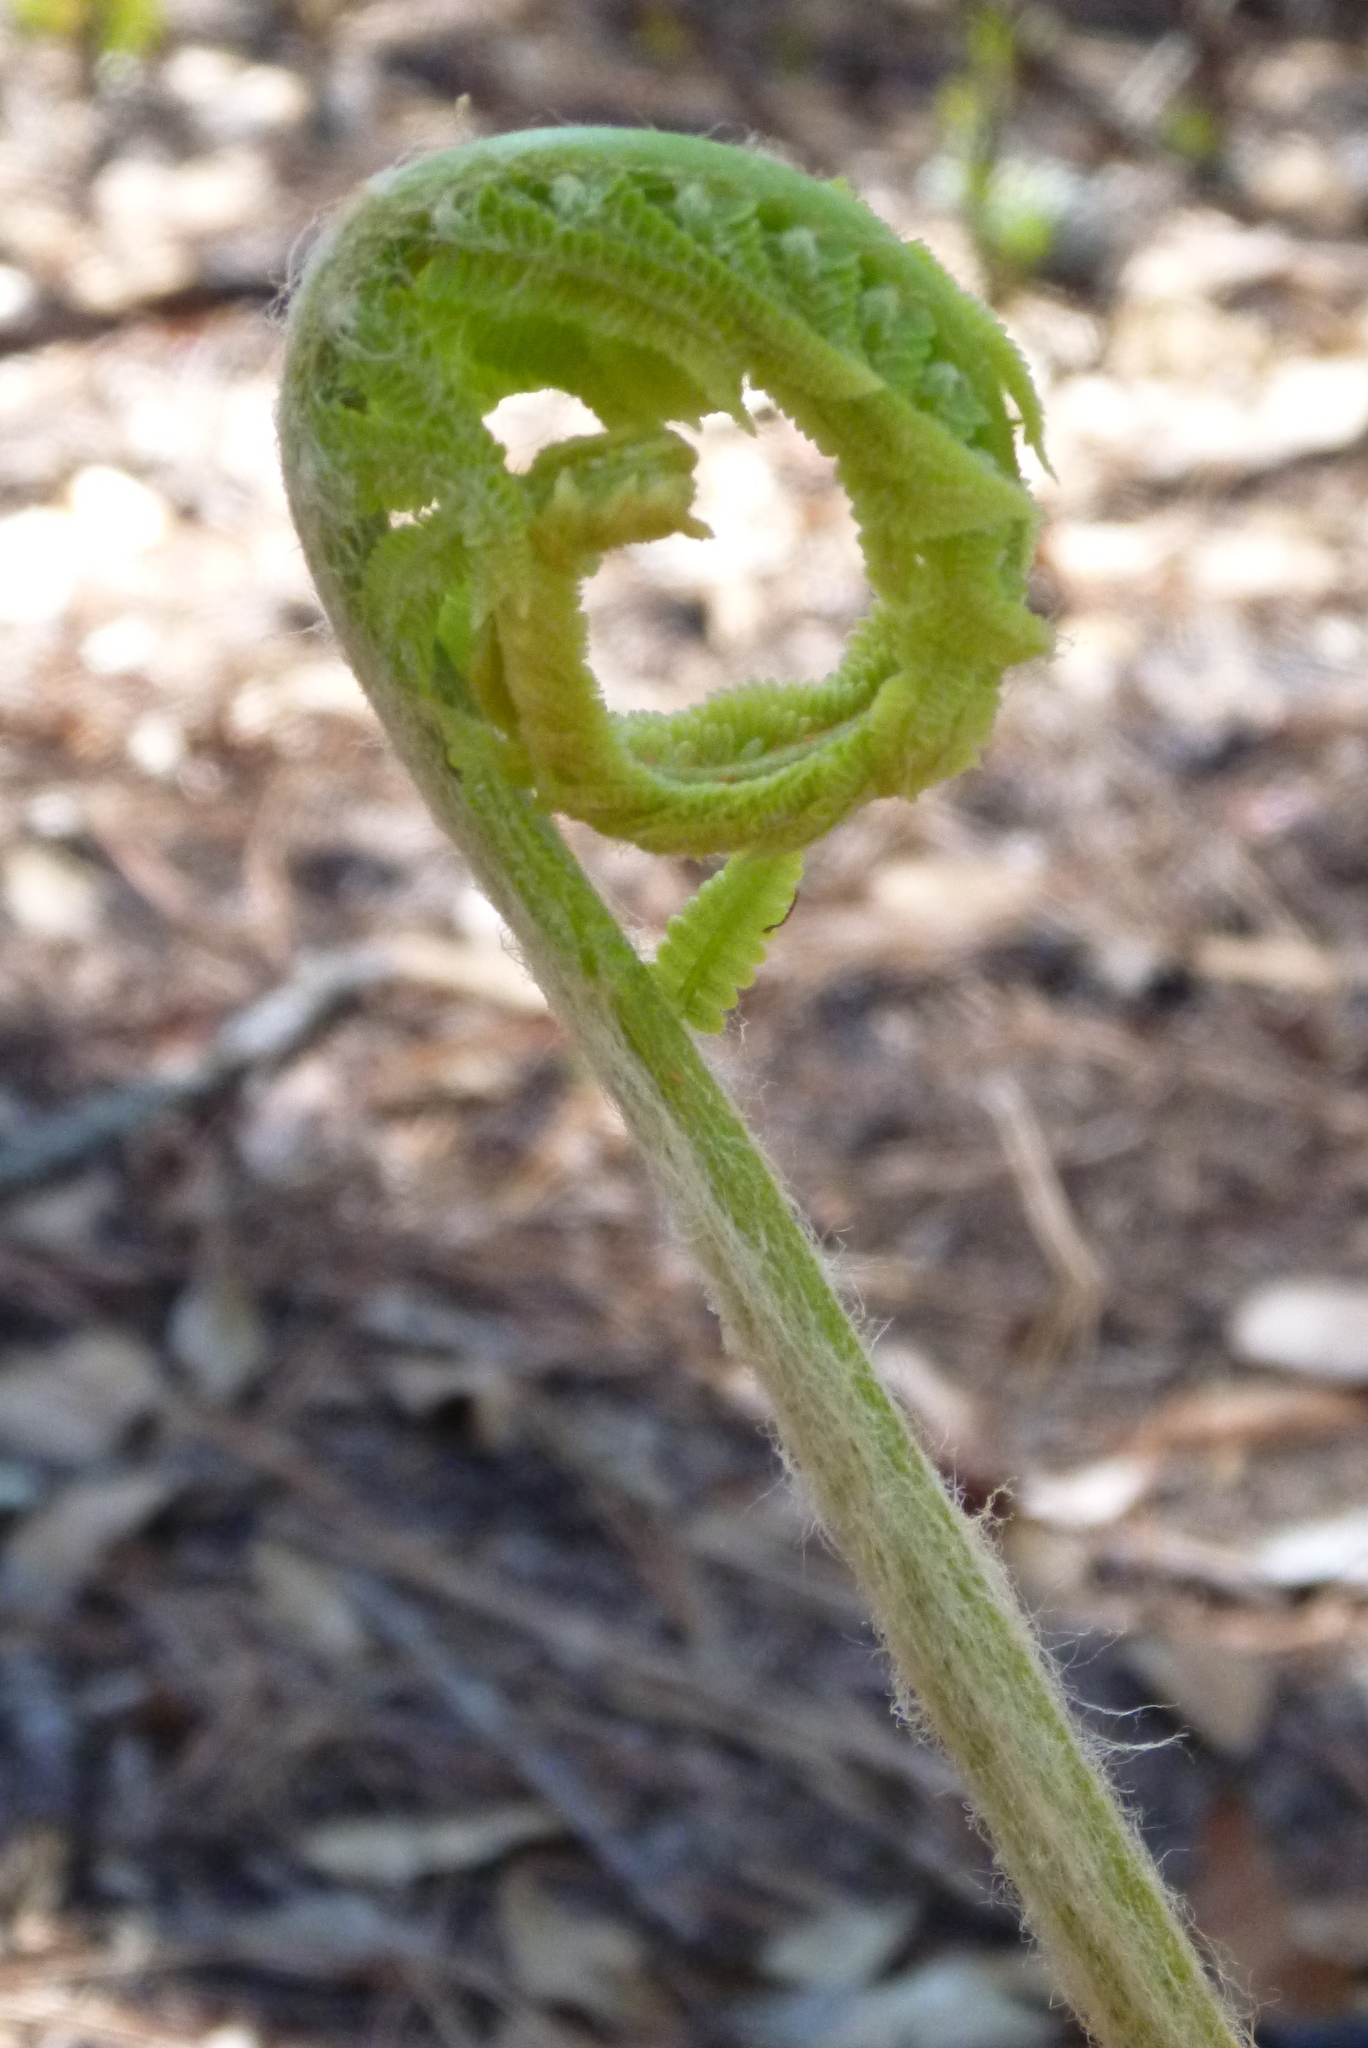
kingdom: Plantae
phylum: Tracheophyta
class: Polypodiopsida
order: Osmundales
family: Osmundaceae
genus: Osmundastrum
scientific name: Osmundastrum cinnamomeum
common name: Cinnamon fern
